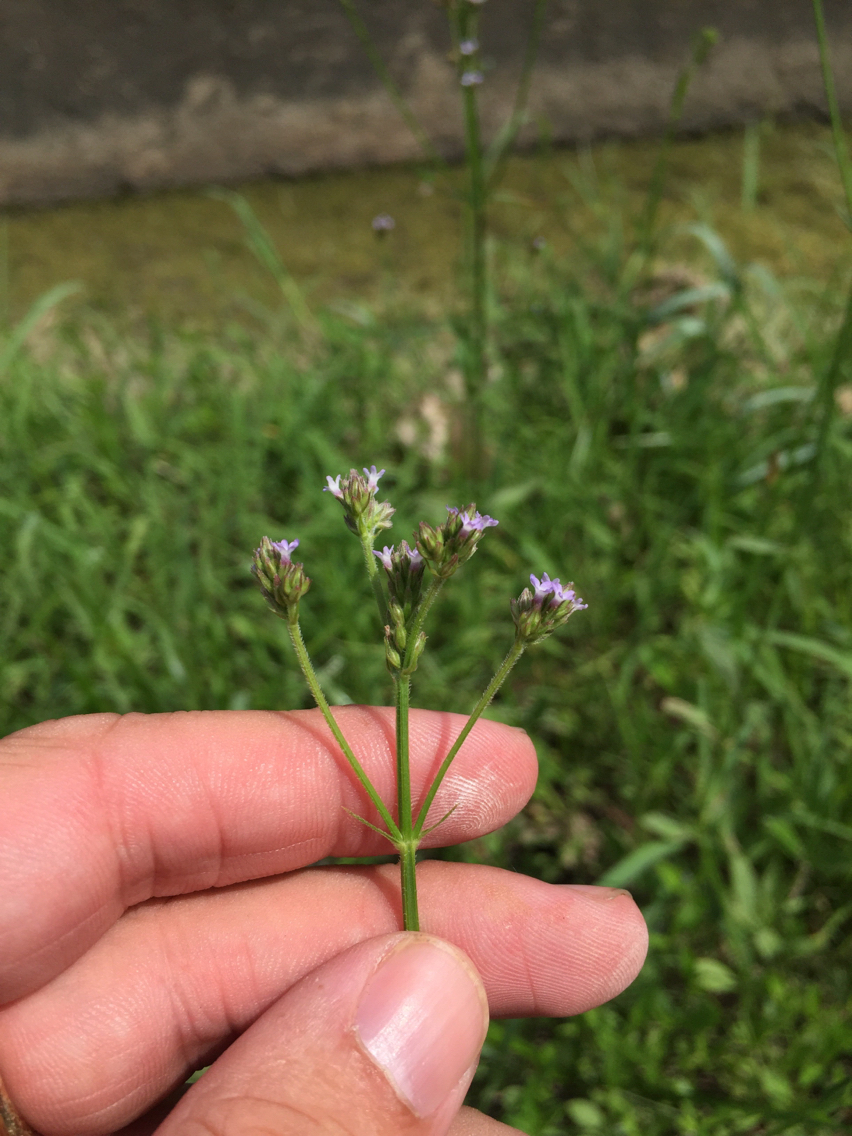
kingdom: Plantae
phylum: Tracheophyta
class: Magnoliopsida
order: Lamiales
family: Verbenaceae
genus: Verbena
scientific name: Verbena brasiliensis
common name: Brazilian vervain
